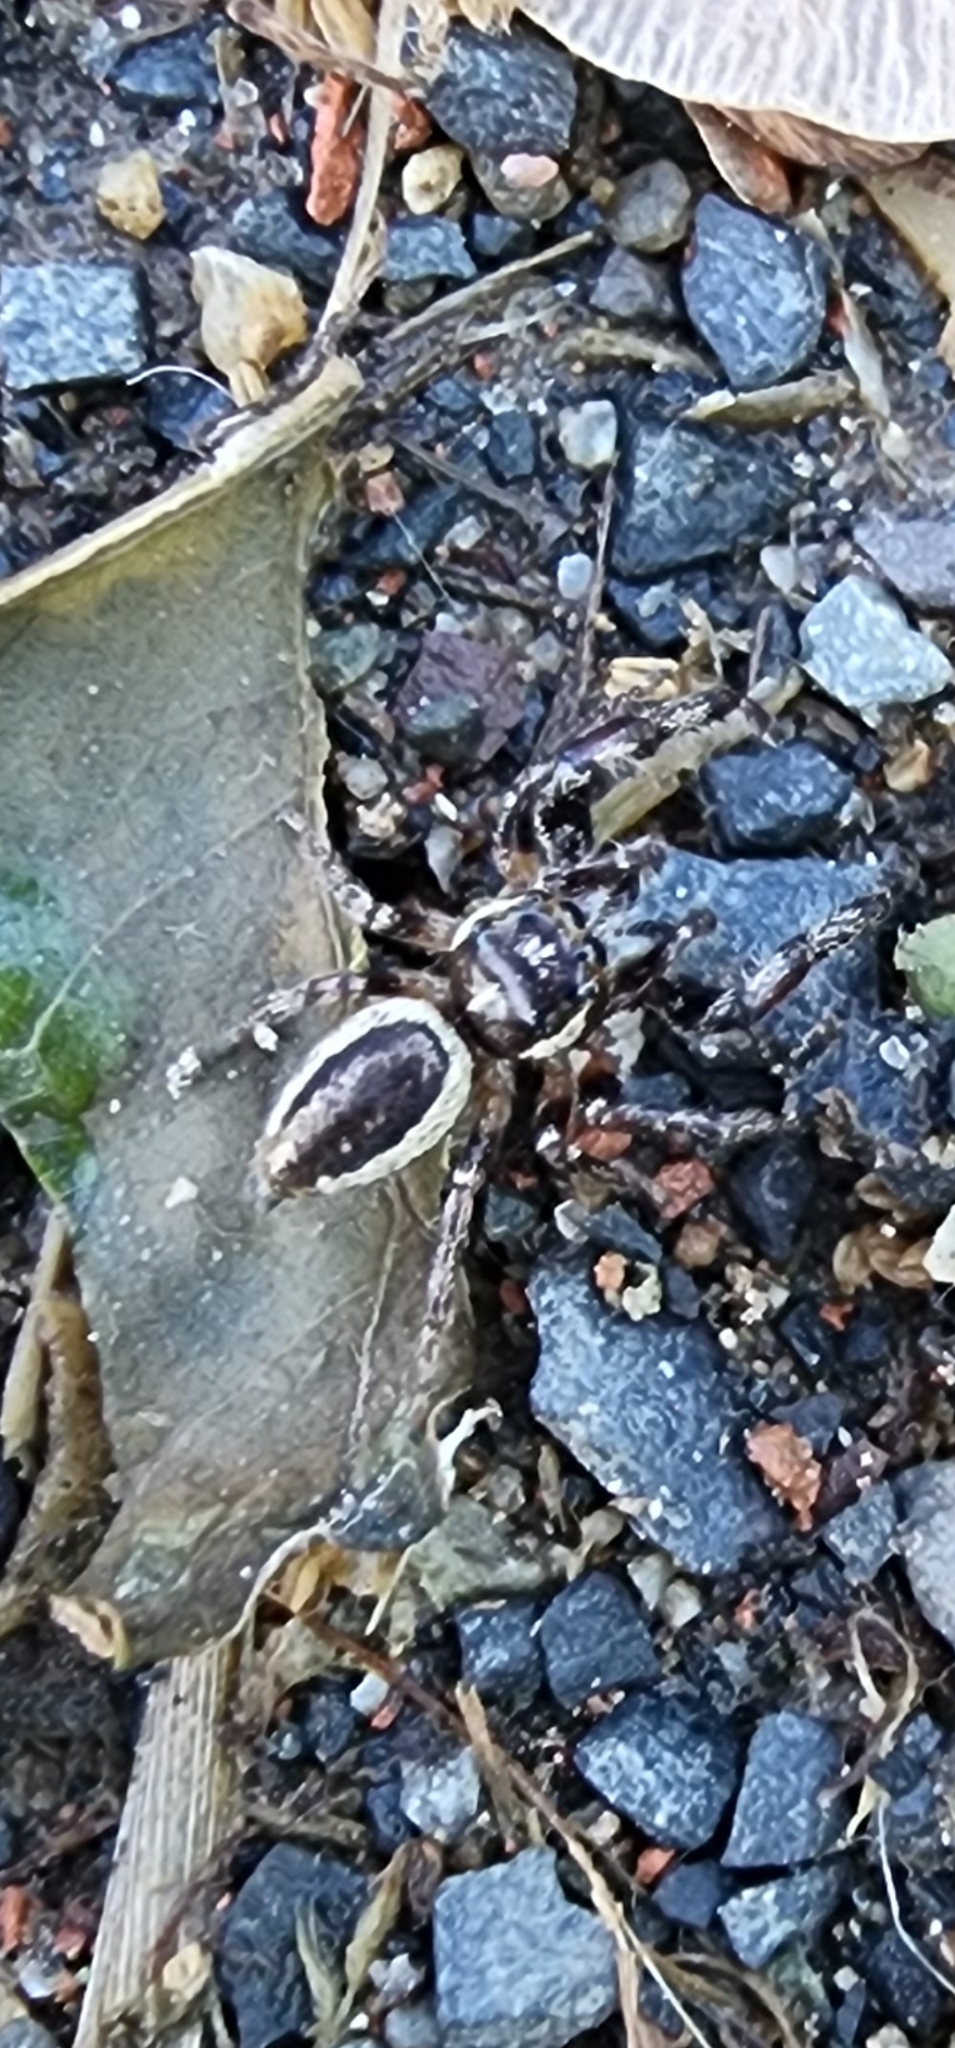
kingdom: Animalia
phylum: Arthropoda
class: Arachnida
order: Araneae
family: Salticidae
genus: Eris
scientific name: Eris militaris
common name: Bronze jumper
